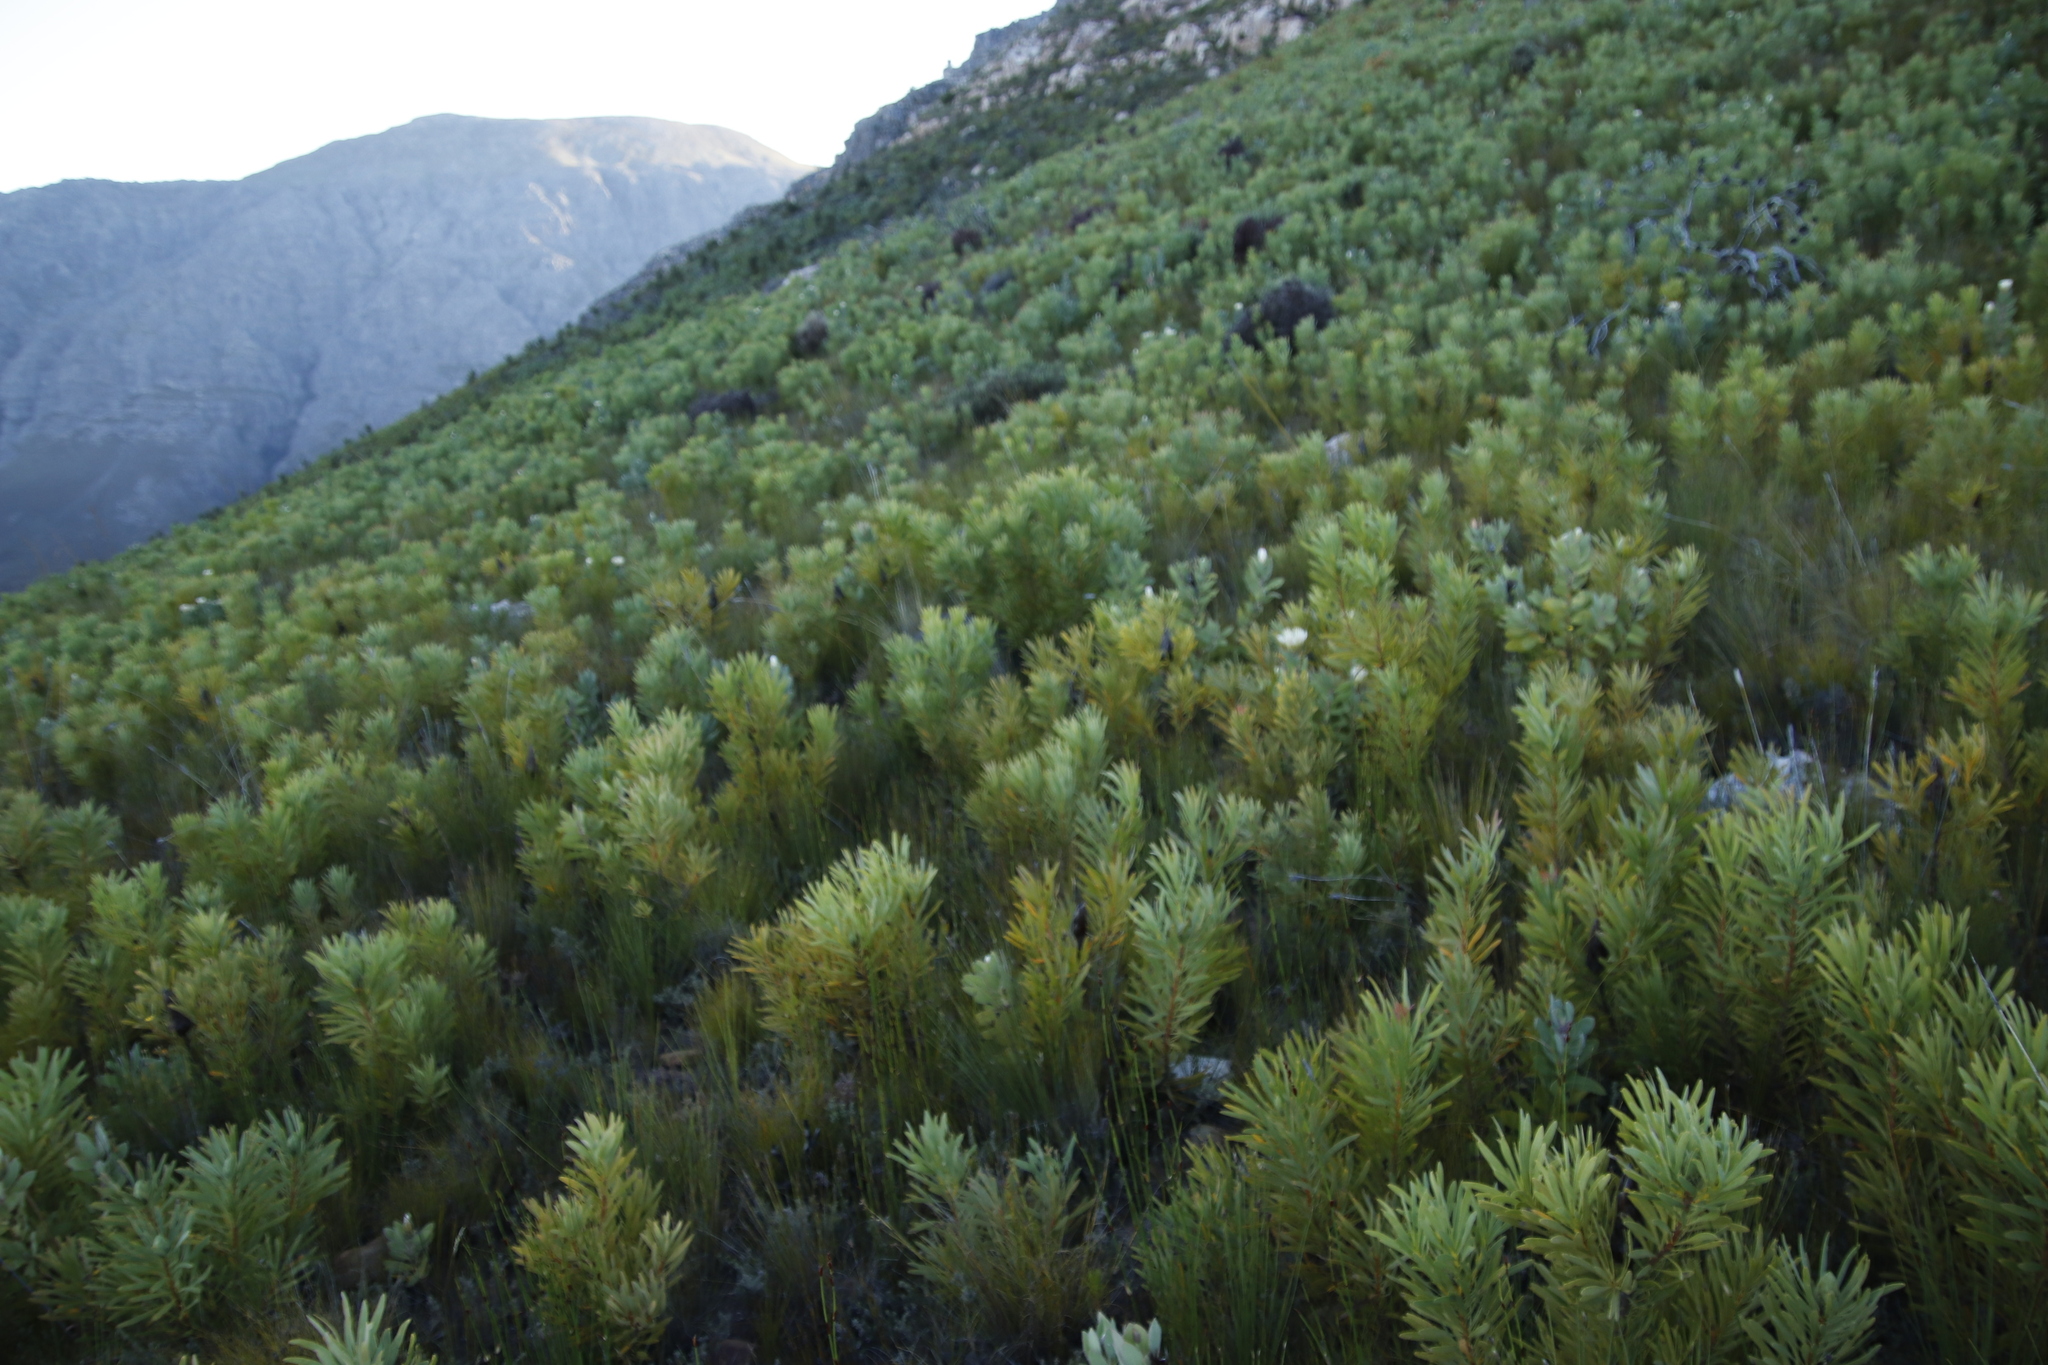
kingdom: Plantae
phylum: Tracheophyta
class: Magnoliopsida
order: Proteales
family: Proteaceae
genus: Protea
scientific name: Protea lacticolor
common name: Hottentot sugarbush
